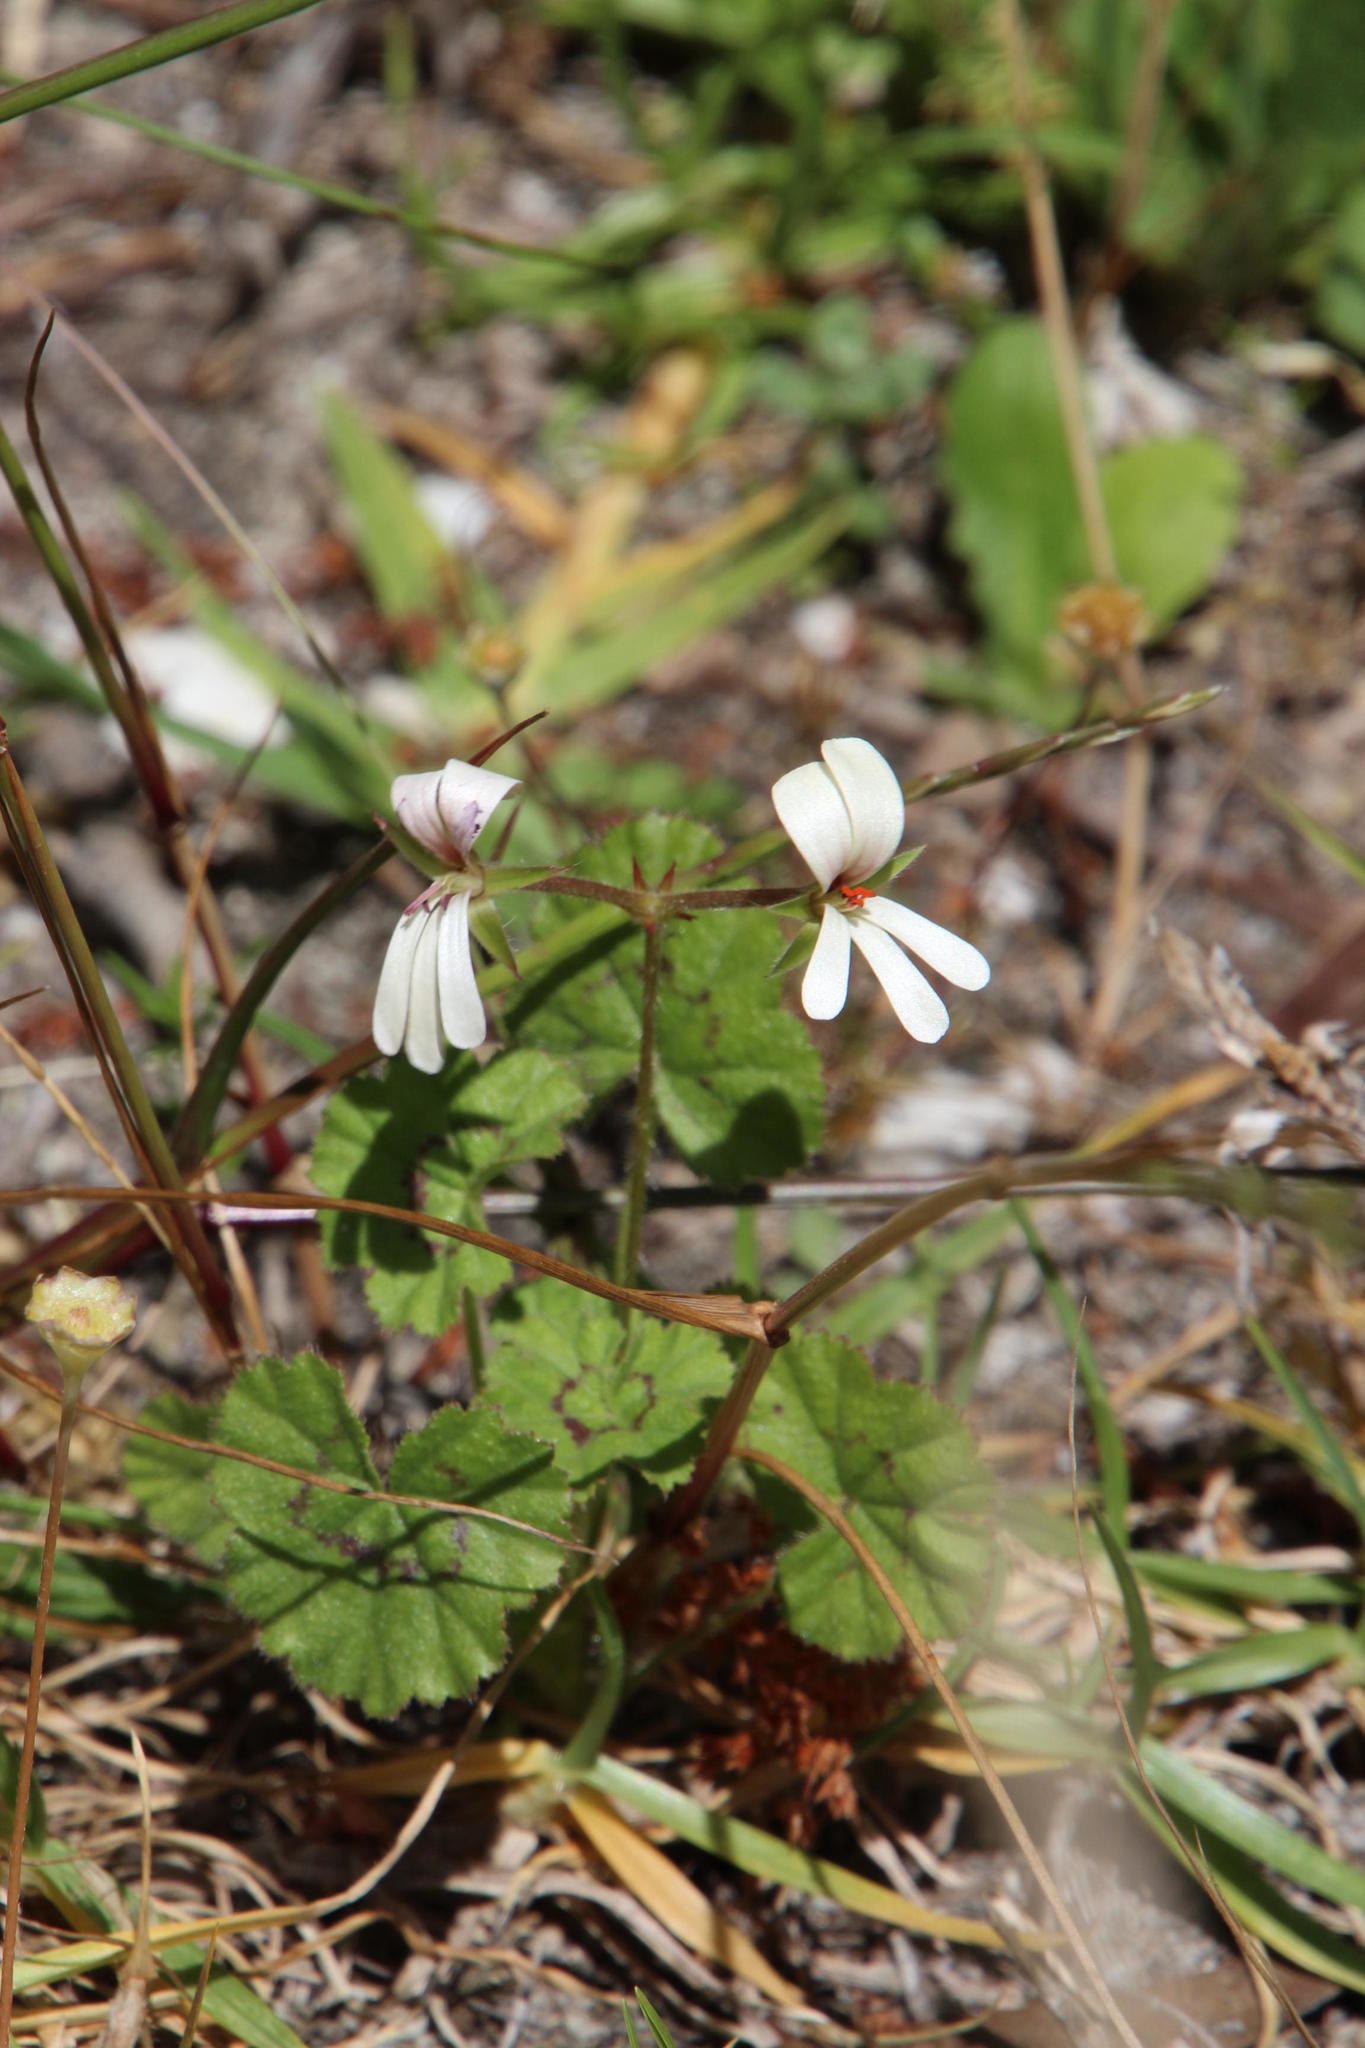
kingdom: Plantae
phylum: Tracheophyta
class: Magnoliopsida
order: Geraniales
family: Geraniaceae
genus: Pelargonium
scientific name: Pelargonium elongatum
